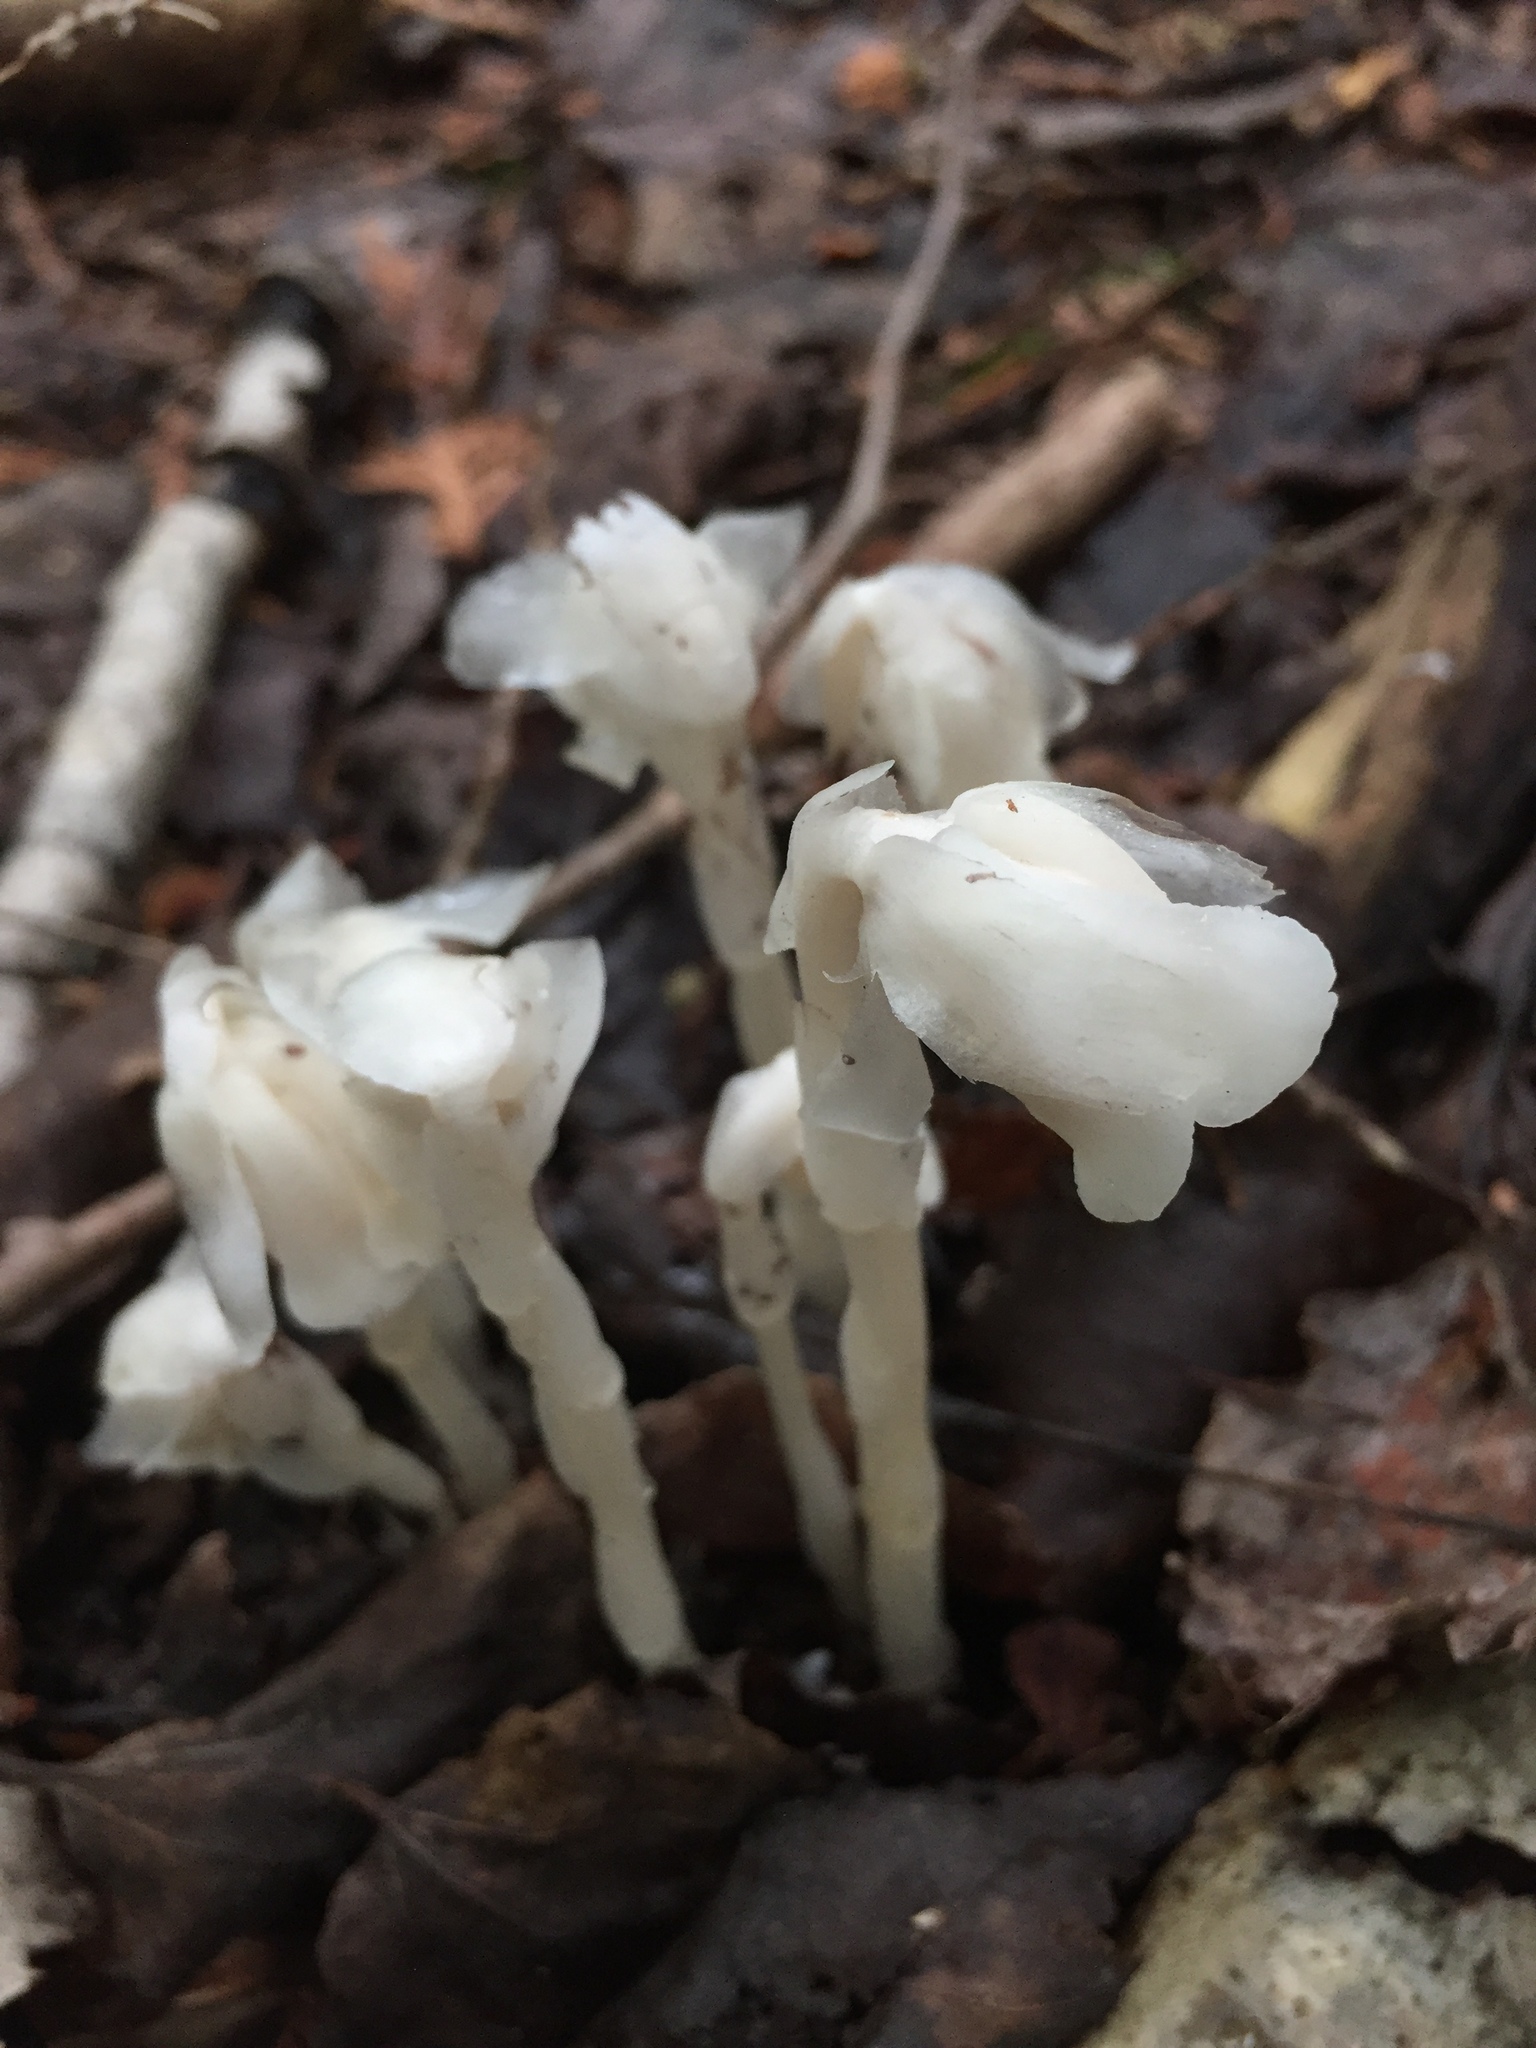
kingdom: Plantae
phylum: Tracheophyta
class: Magnoliopsida
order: Ericales
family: Ericaceae
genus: Monotropa
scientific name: Monotropa uniflora
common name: Convulsion root
